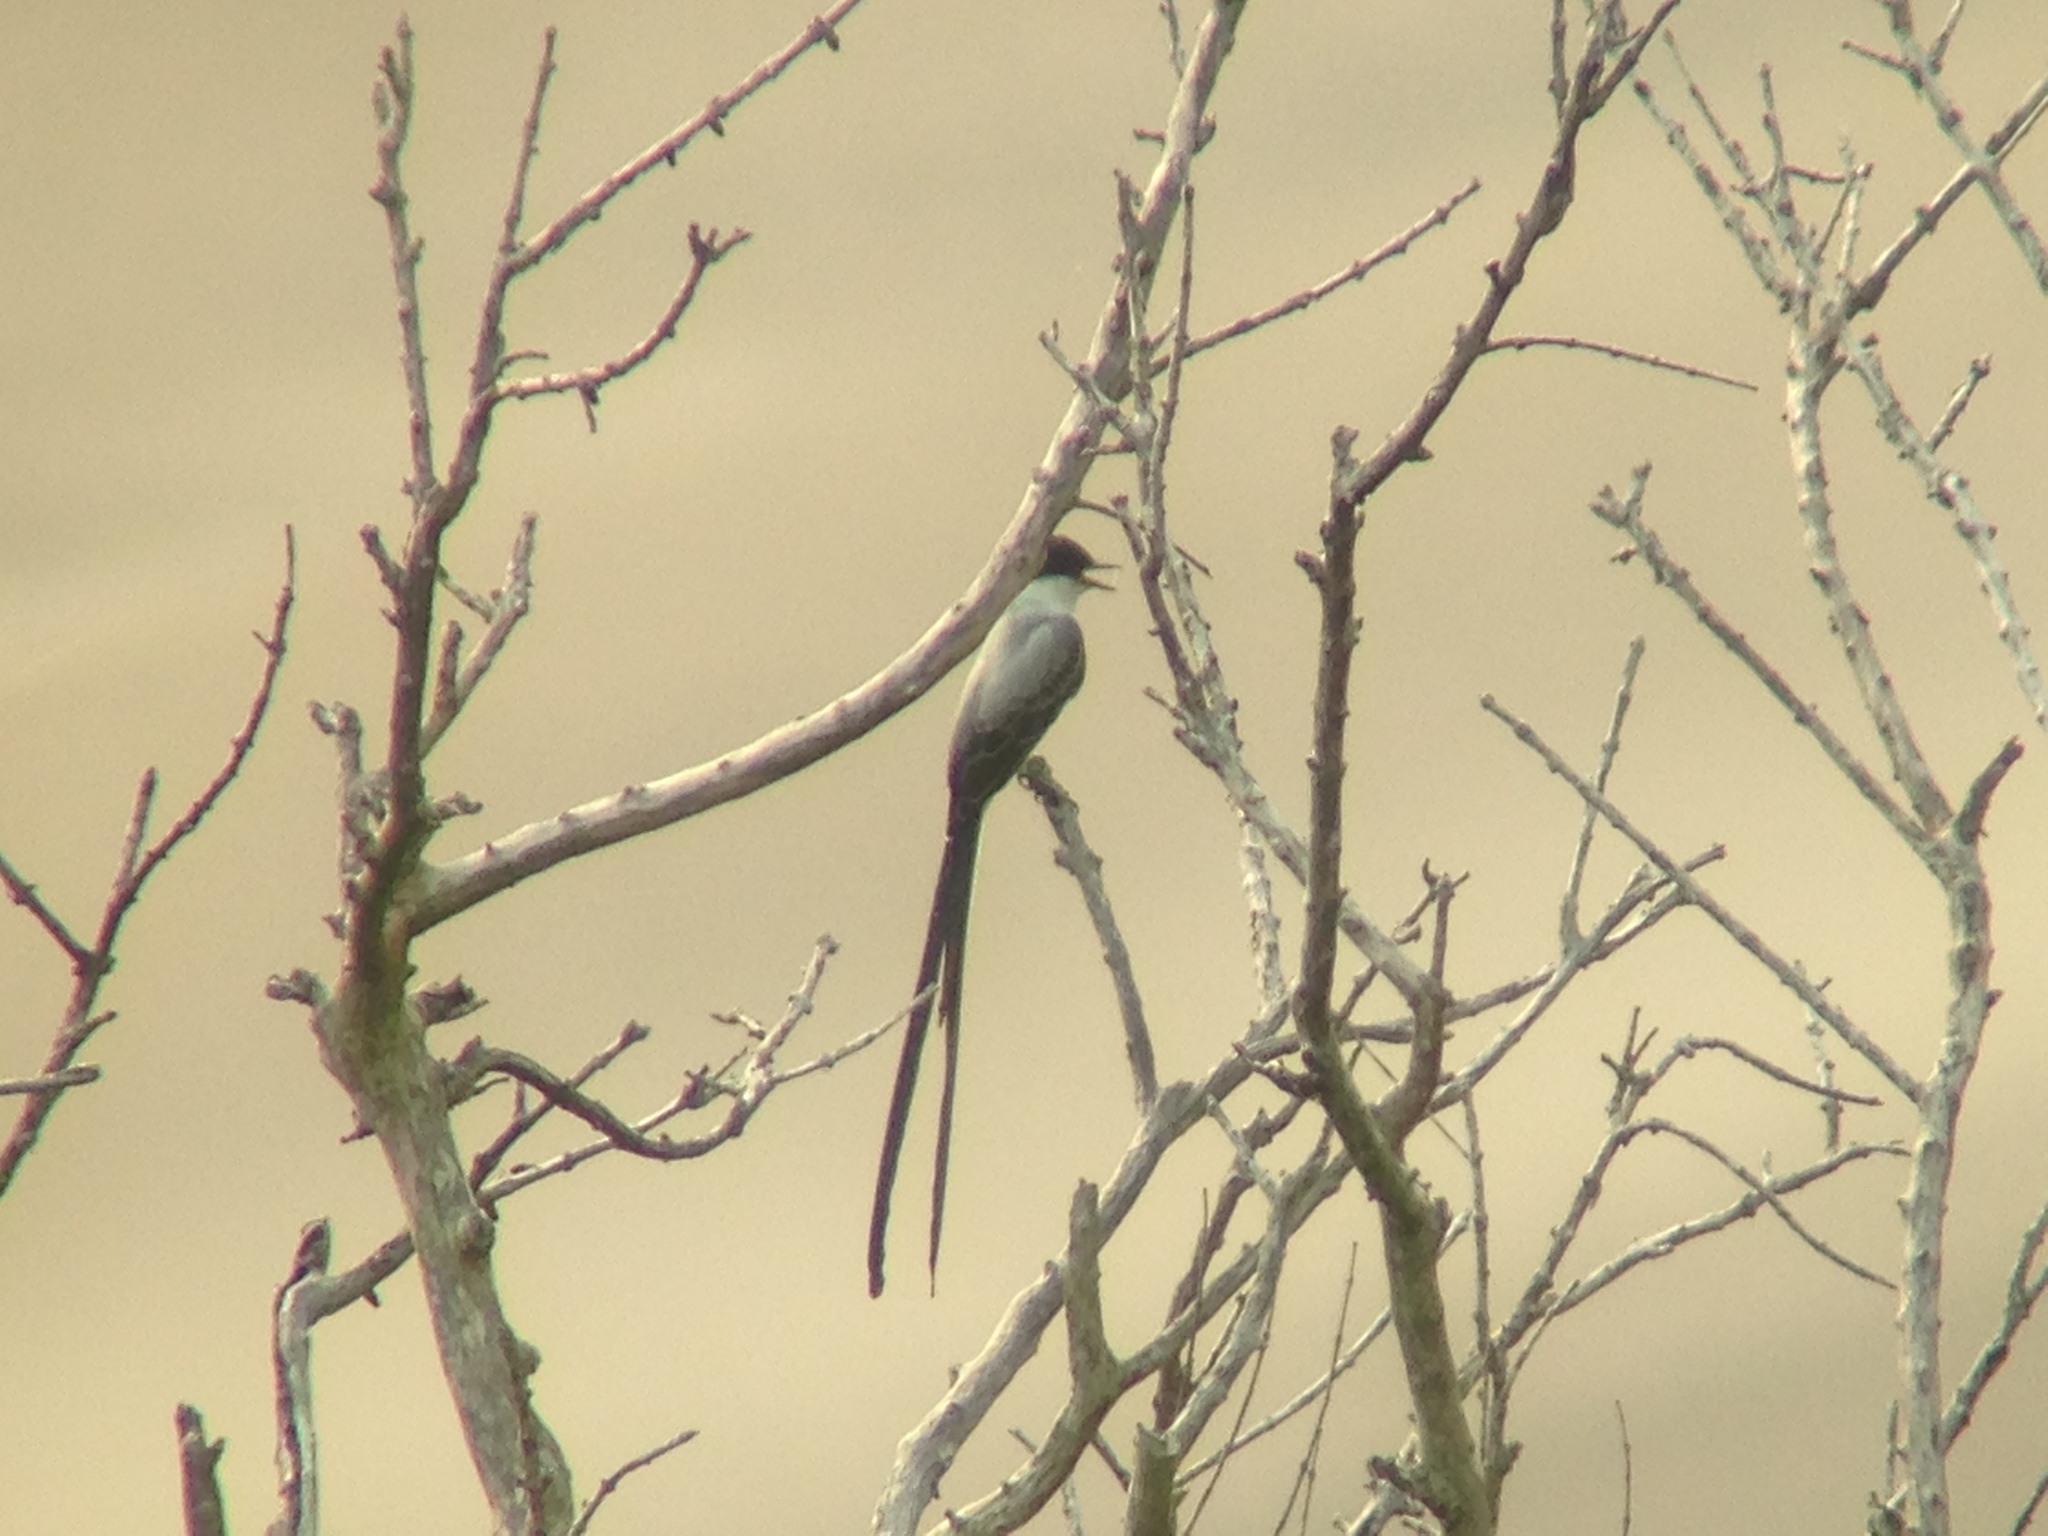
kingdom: Animalia
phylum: Chordata
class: Aves
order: Passeriformes
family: Tyrannidae
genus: Tyrannus
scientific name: Tyrannus savana
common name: Fork-tailed flycatcher
